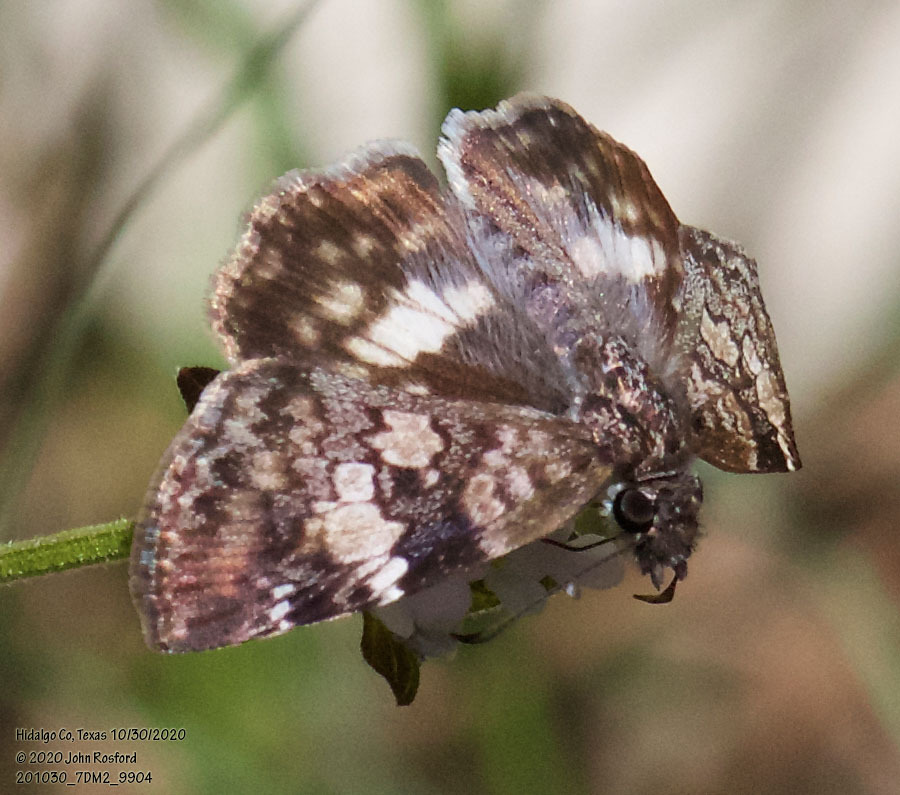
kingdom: Animalia
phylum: Arthropoda
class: Insecta
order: Lepidoptera
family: Hesperiidae
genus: Chiothion
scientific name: Chiothion georgina
